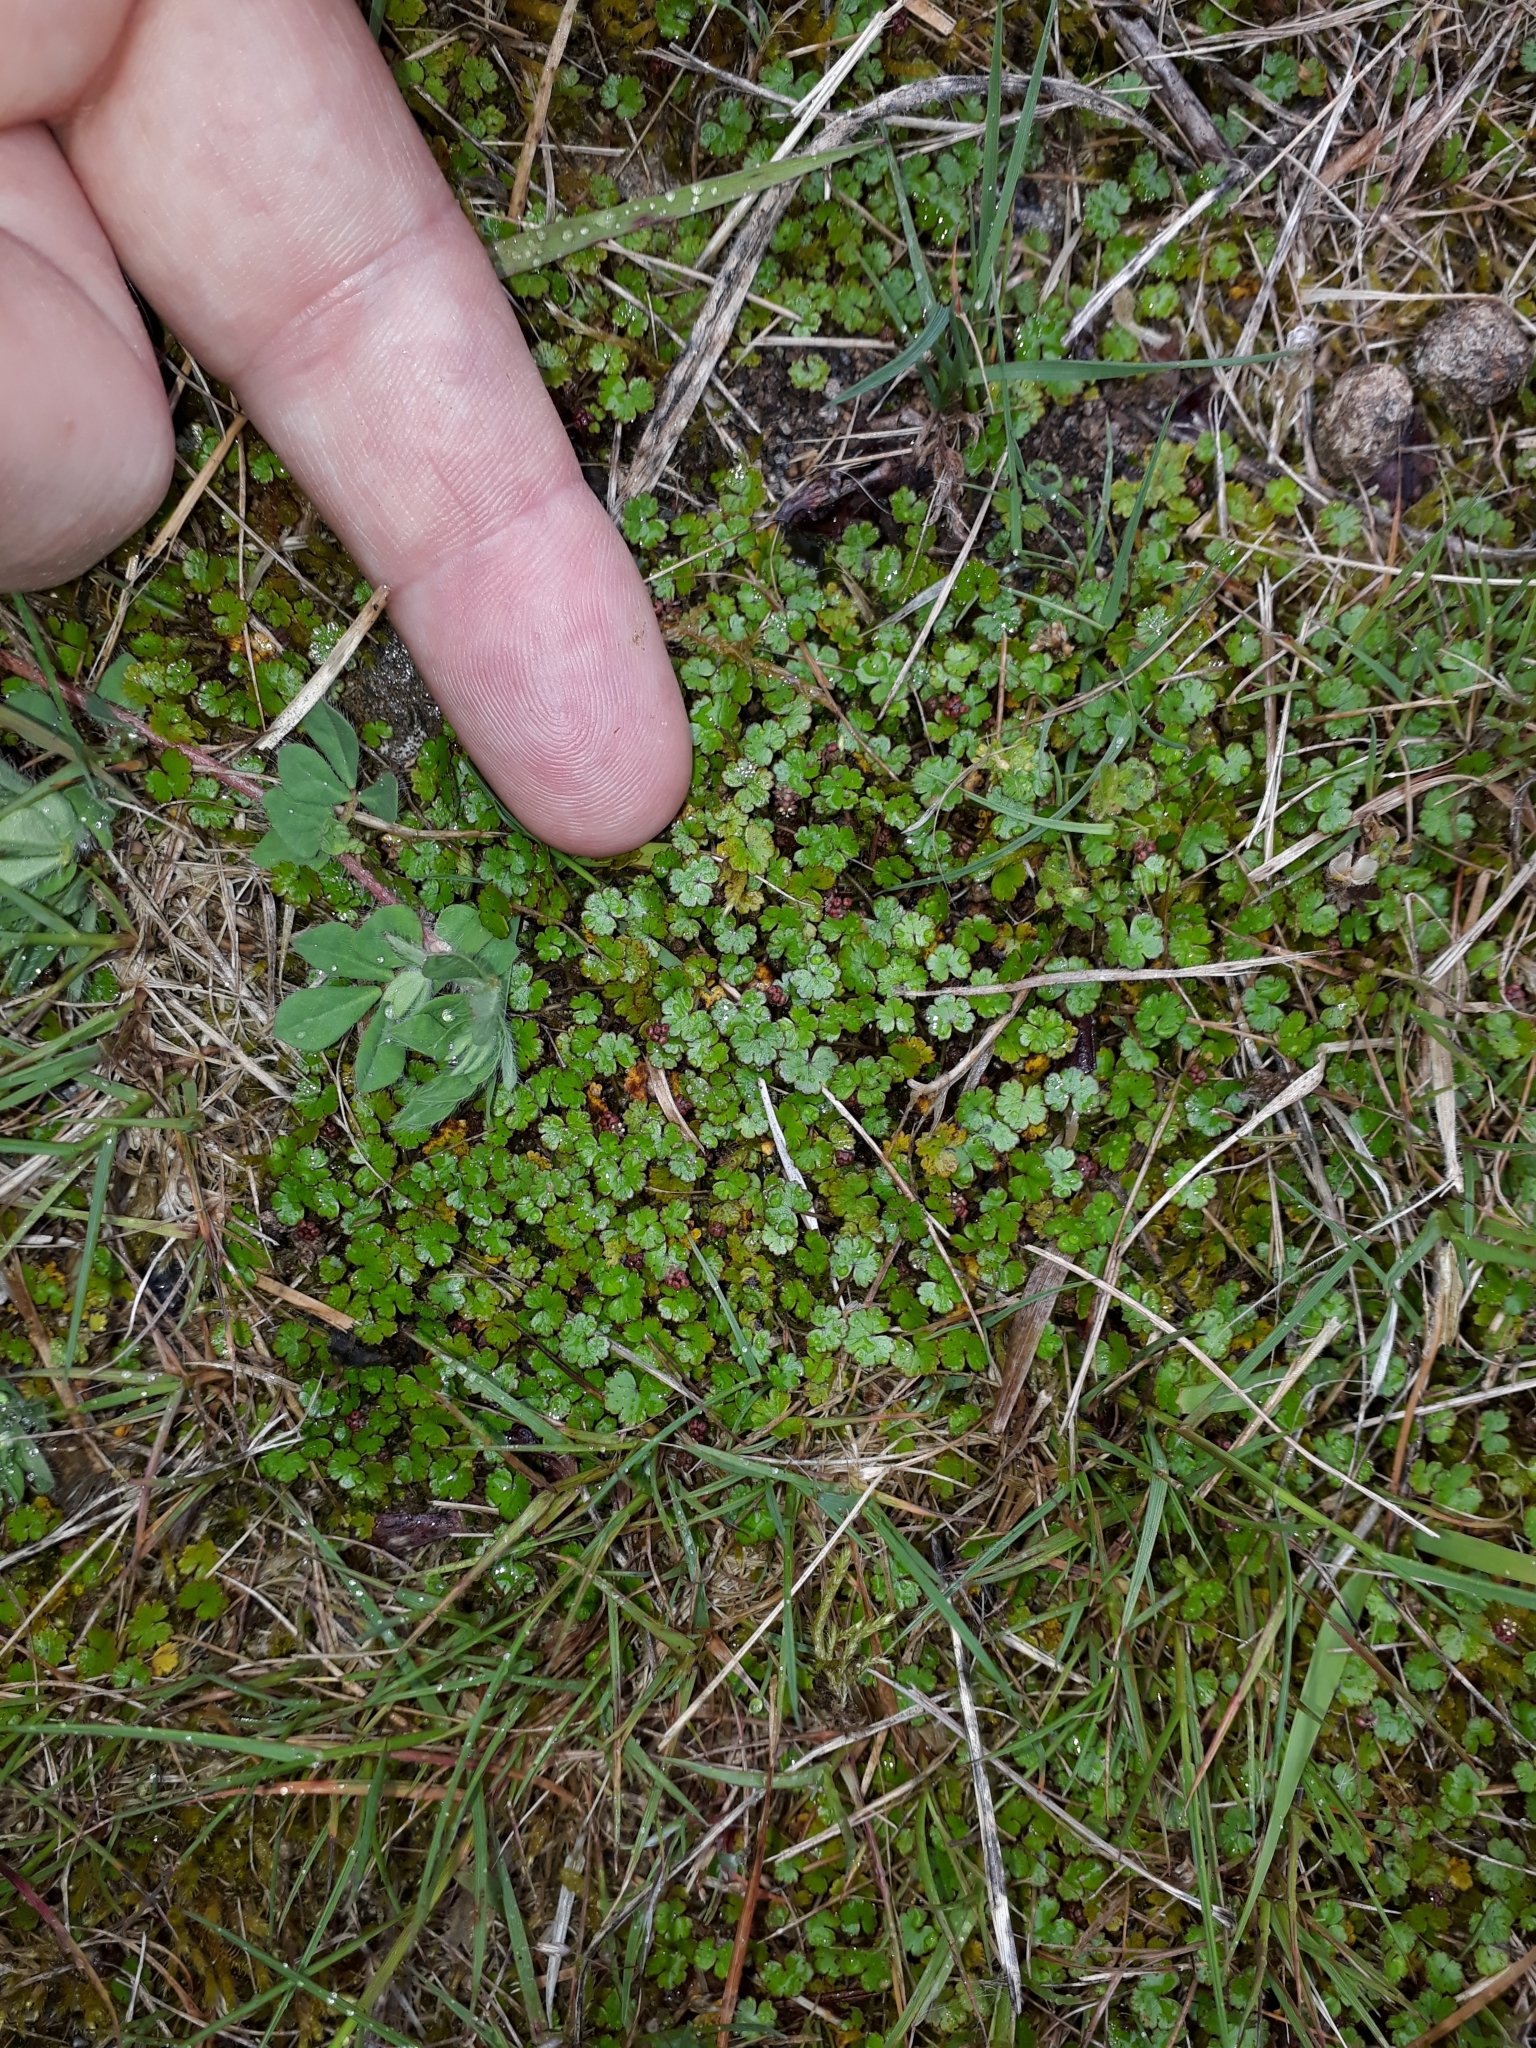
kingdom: Plantae
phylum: Tracheophyta
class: Magnoliopsida
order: Apiales
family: Araliaceae
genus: Hydrocotyle
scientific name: Hydrocotyle microphylla
